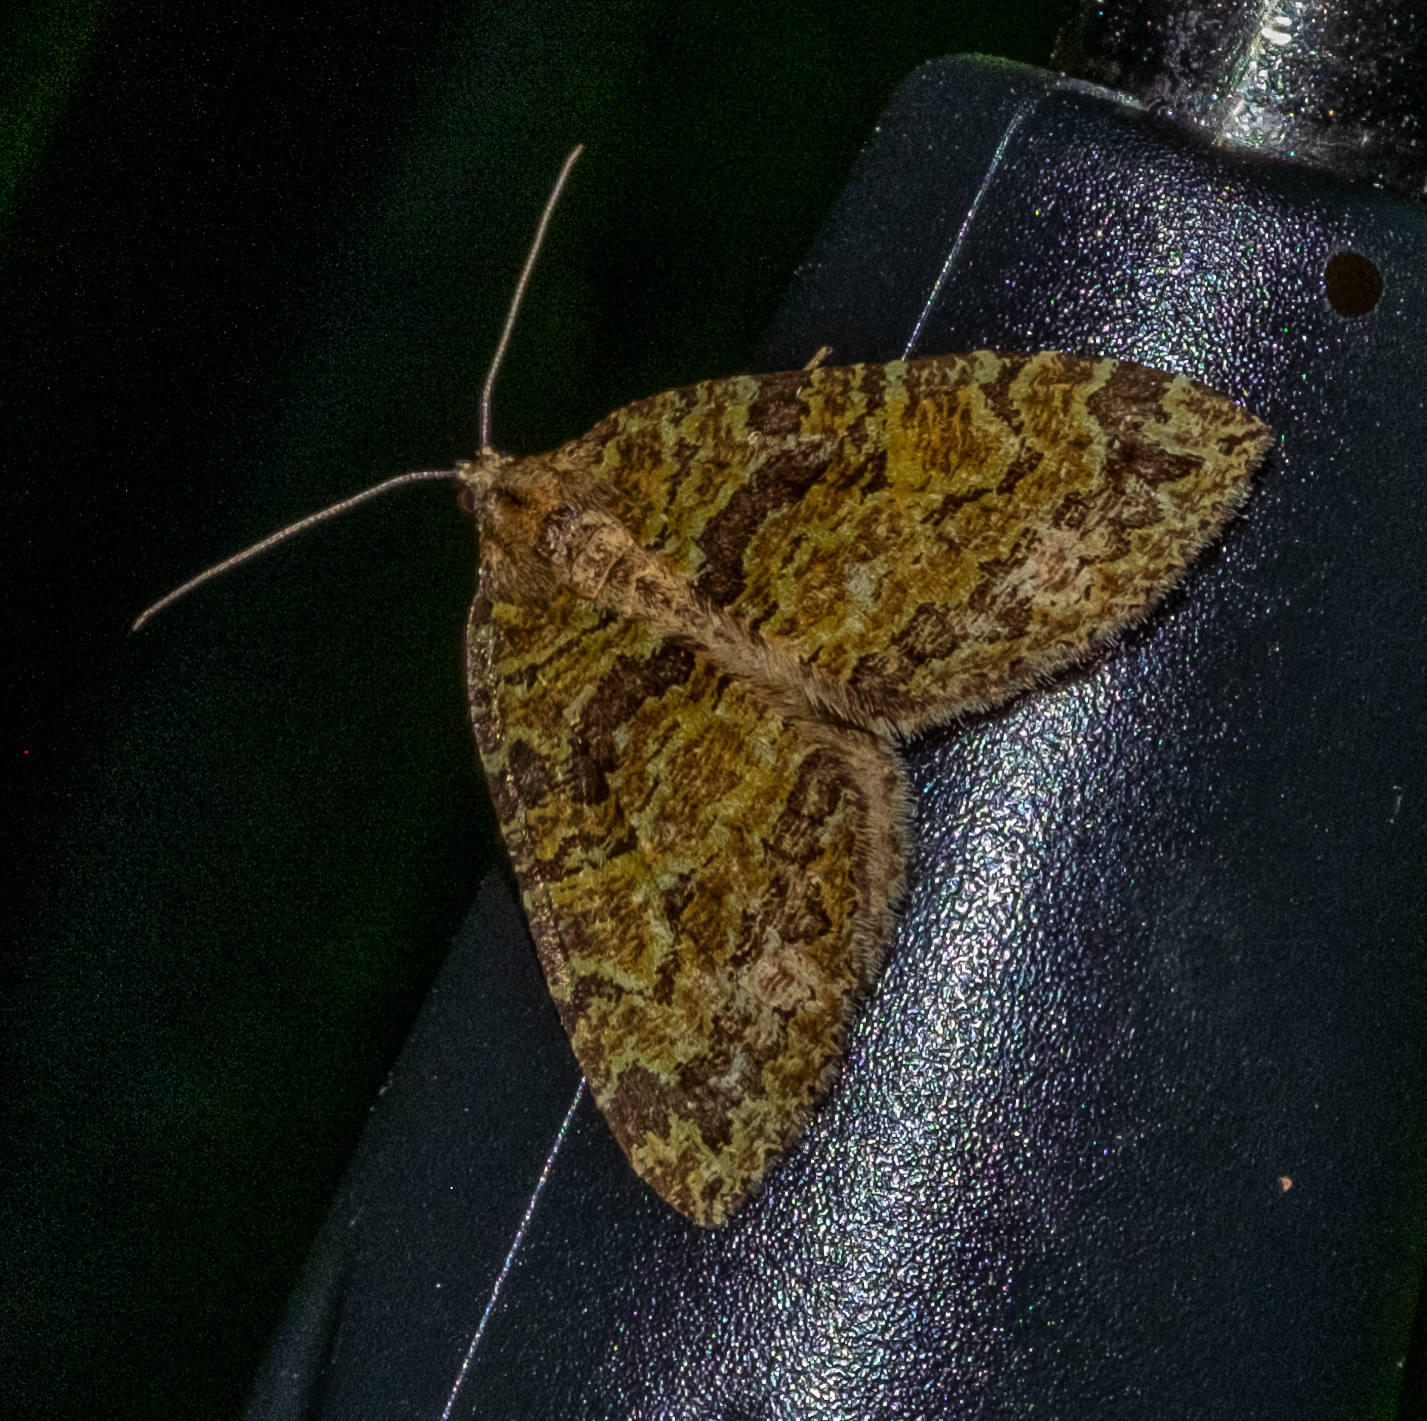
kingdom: Animalia
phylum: Arthropoda
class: Insecta
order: Lepidoptera
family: Geometridae
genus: Hydriomena
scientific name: Hydriomena furcata
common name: July highflyer
